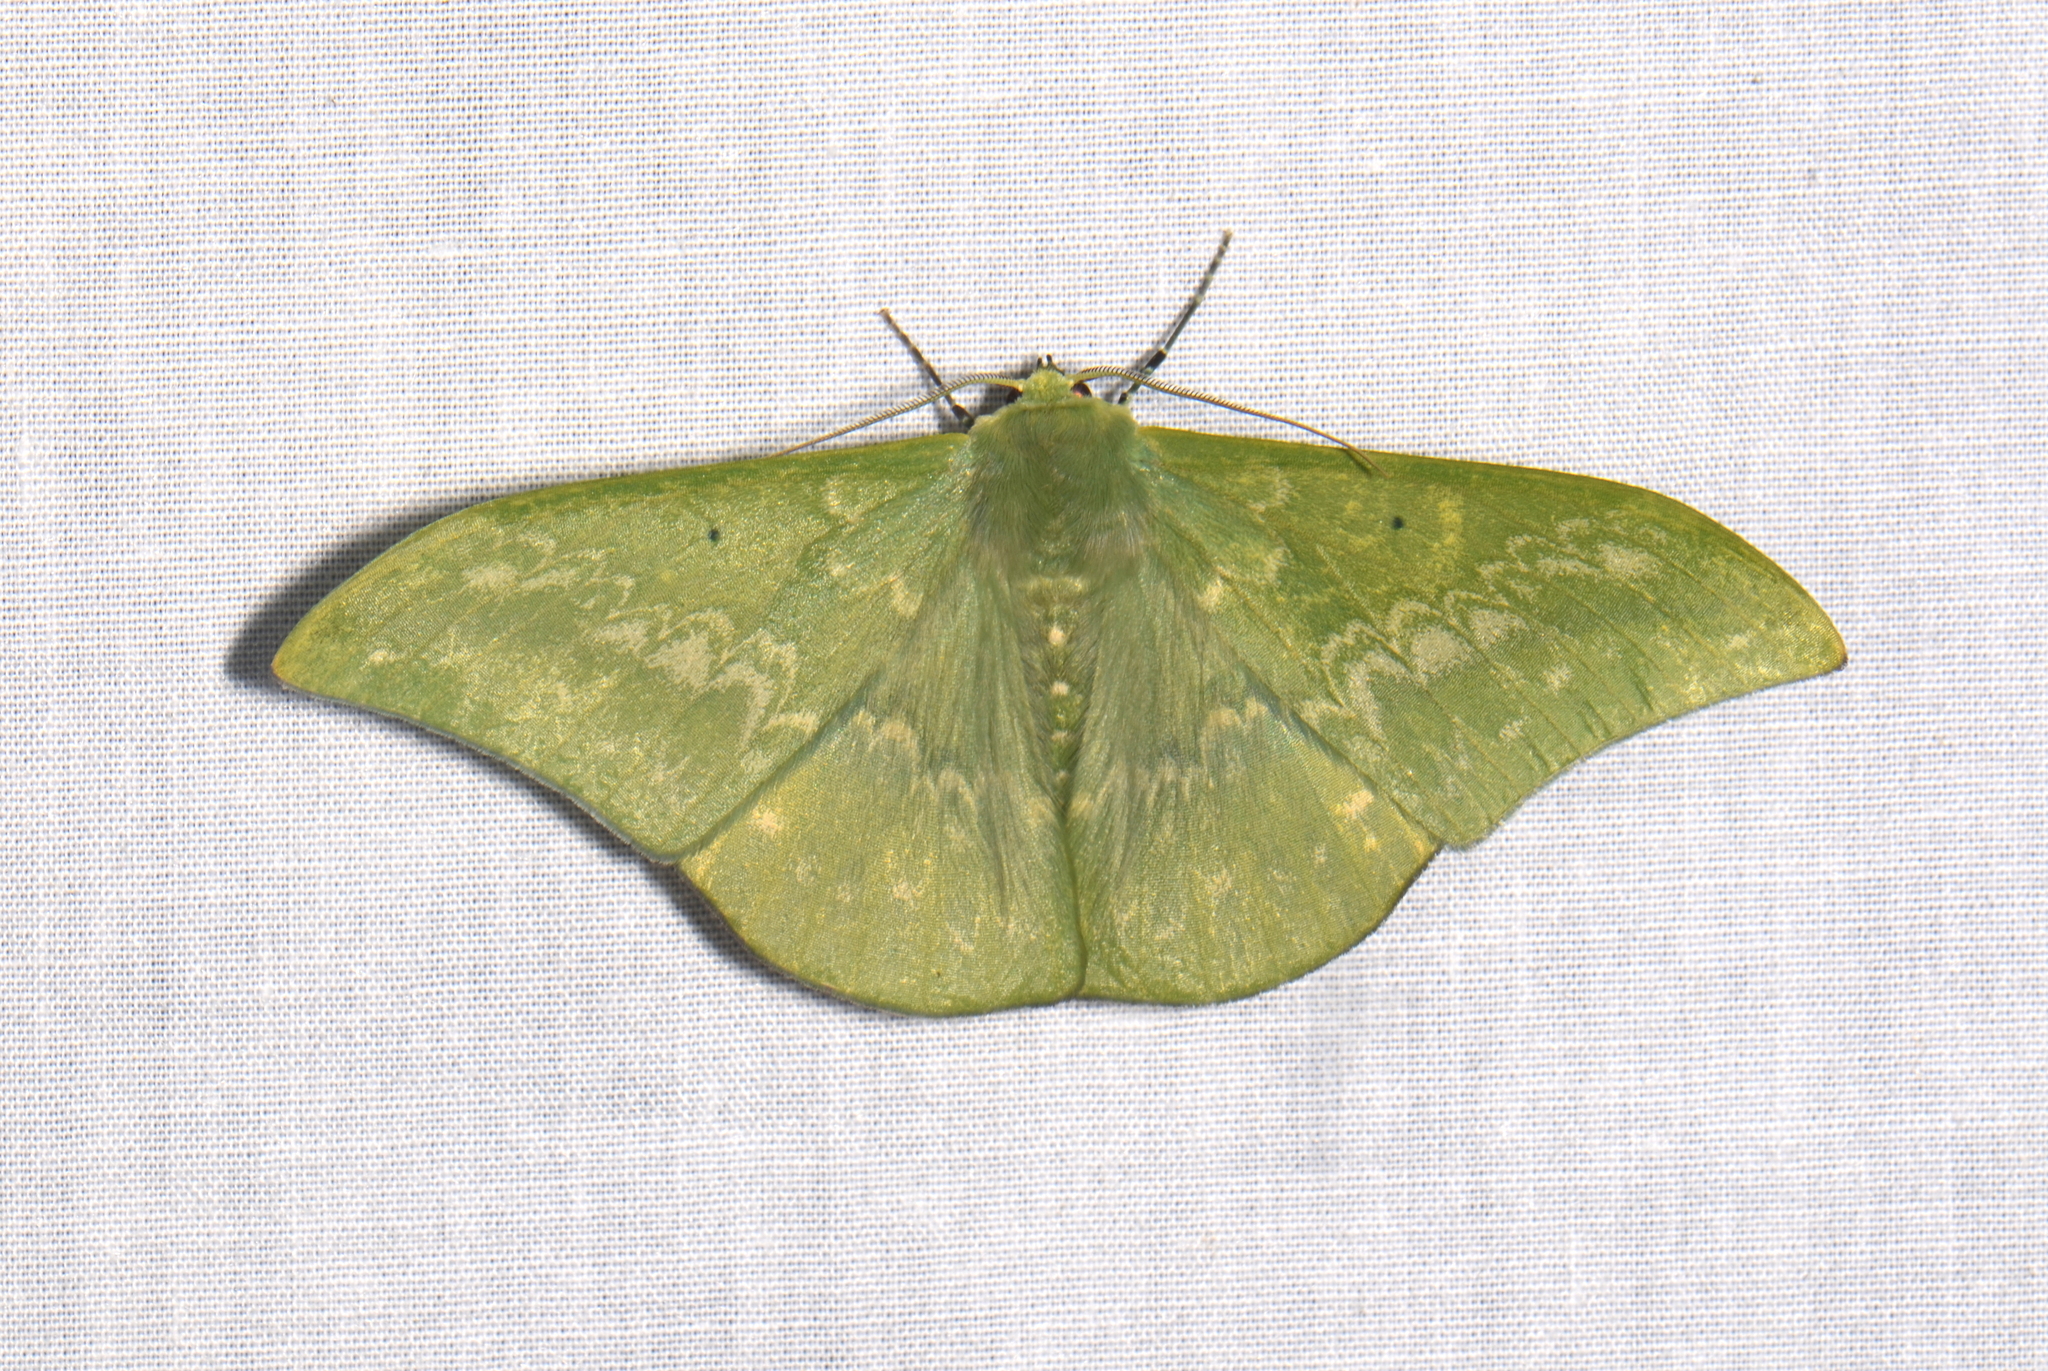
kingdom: Animalia
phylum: Arthropoda
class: Insecta
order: Lepidoptera
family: Geometridae
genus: Tanaorhinus
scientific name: Tanaorhinus malayanus
